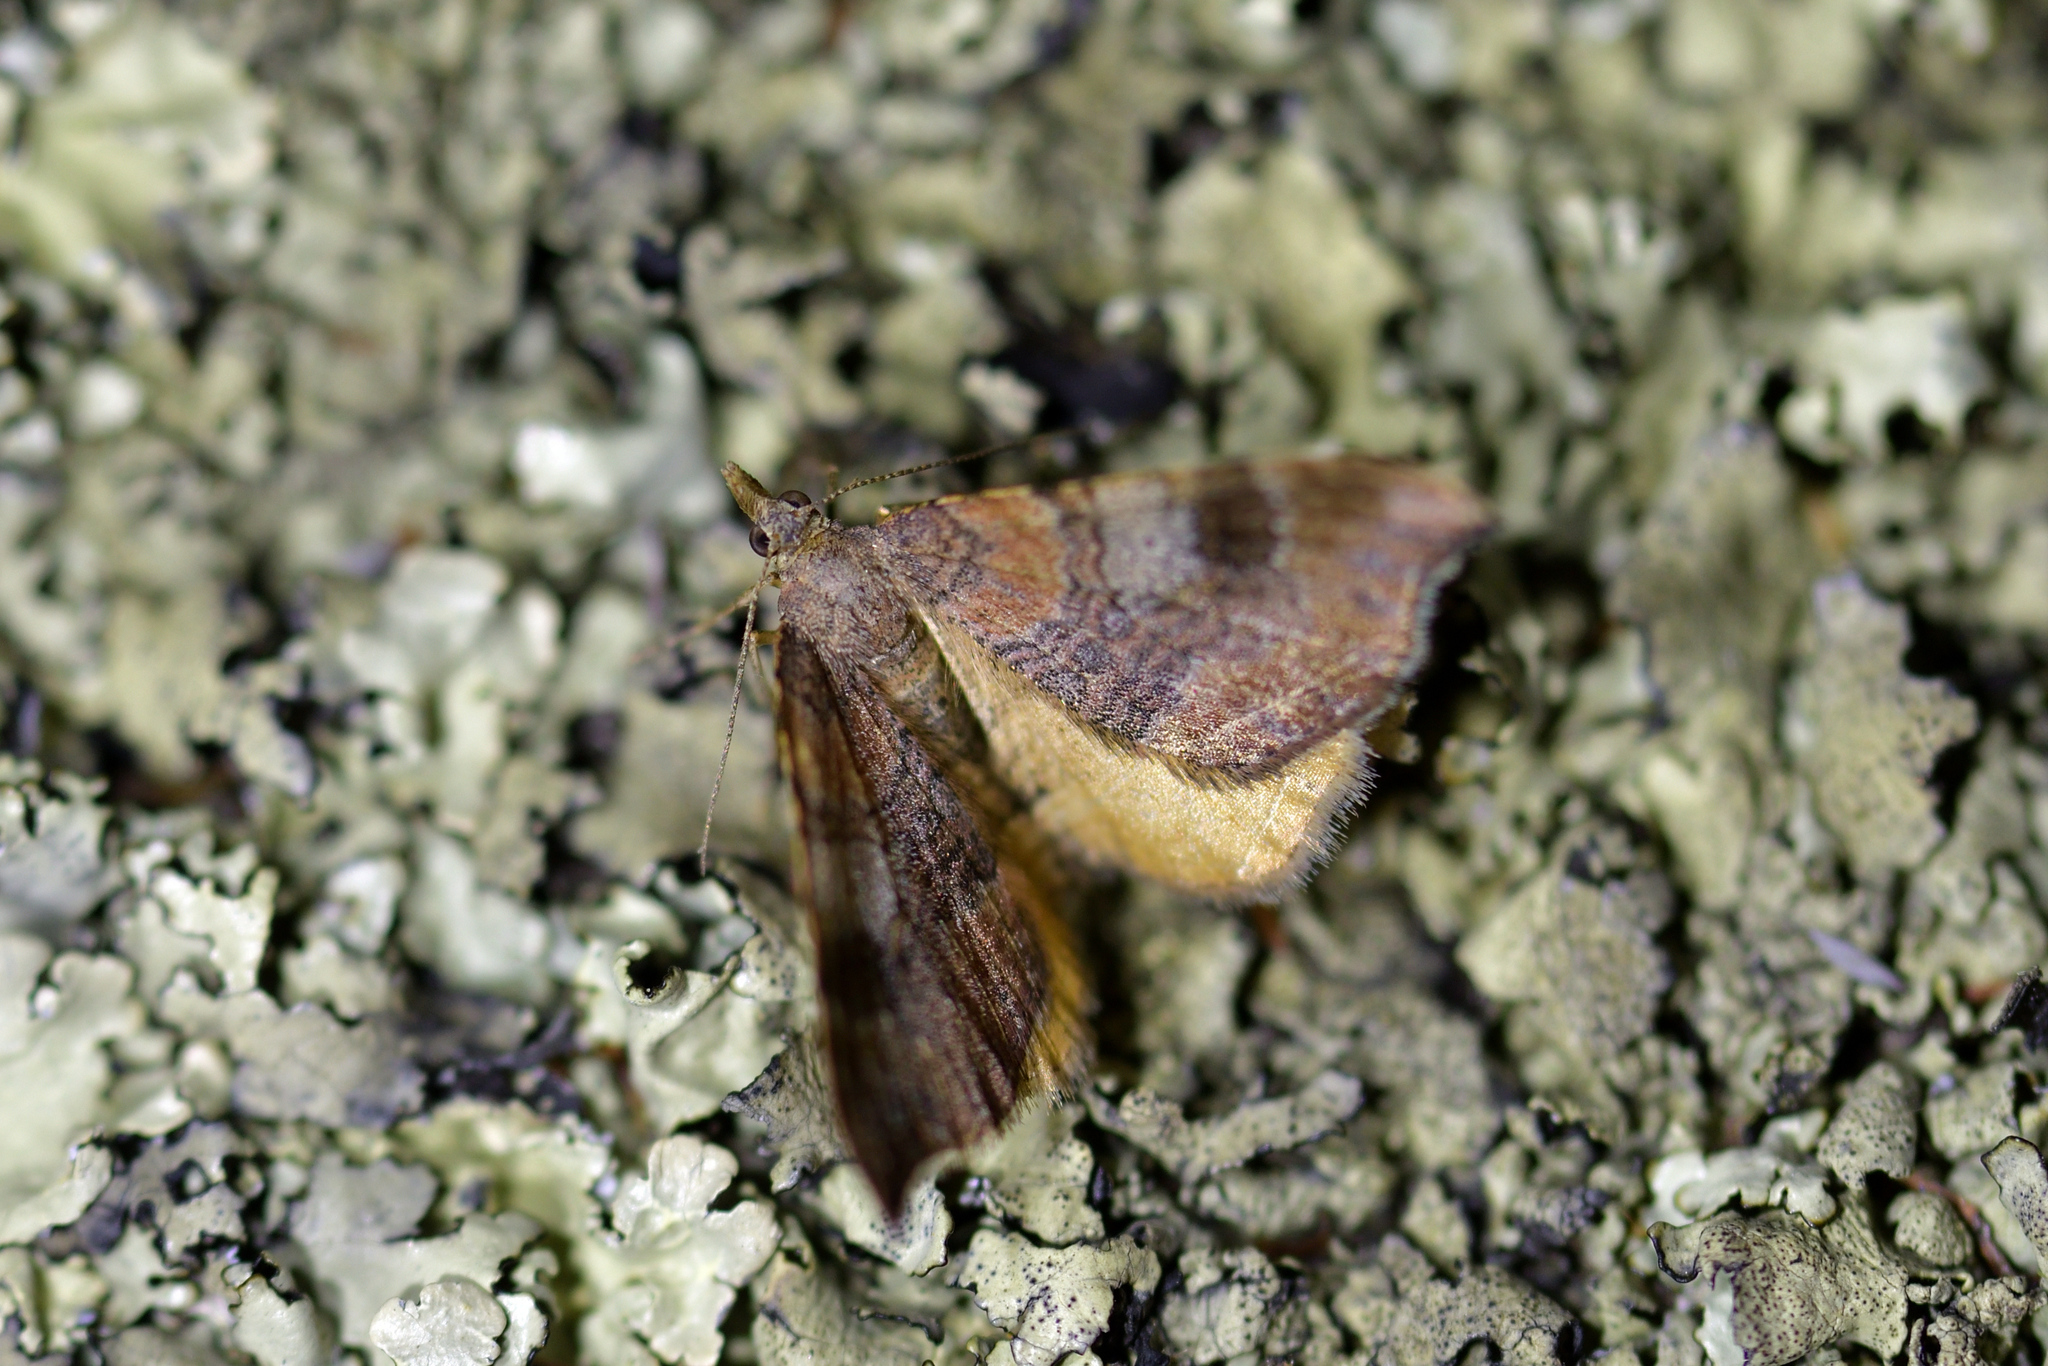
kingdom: Animalia
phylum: Arthropoda
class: Insecta
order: Lepidoptera
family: Geometridae
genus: Homodotis
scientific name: Homodotis megaspilata
